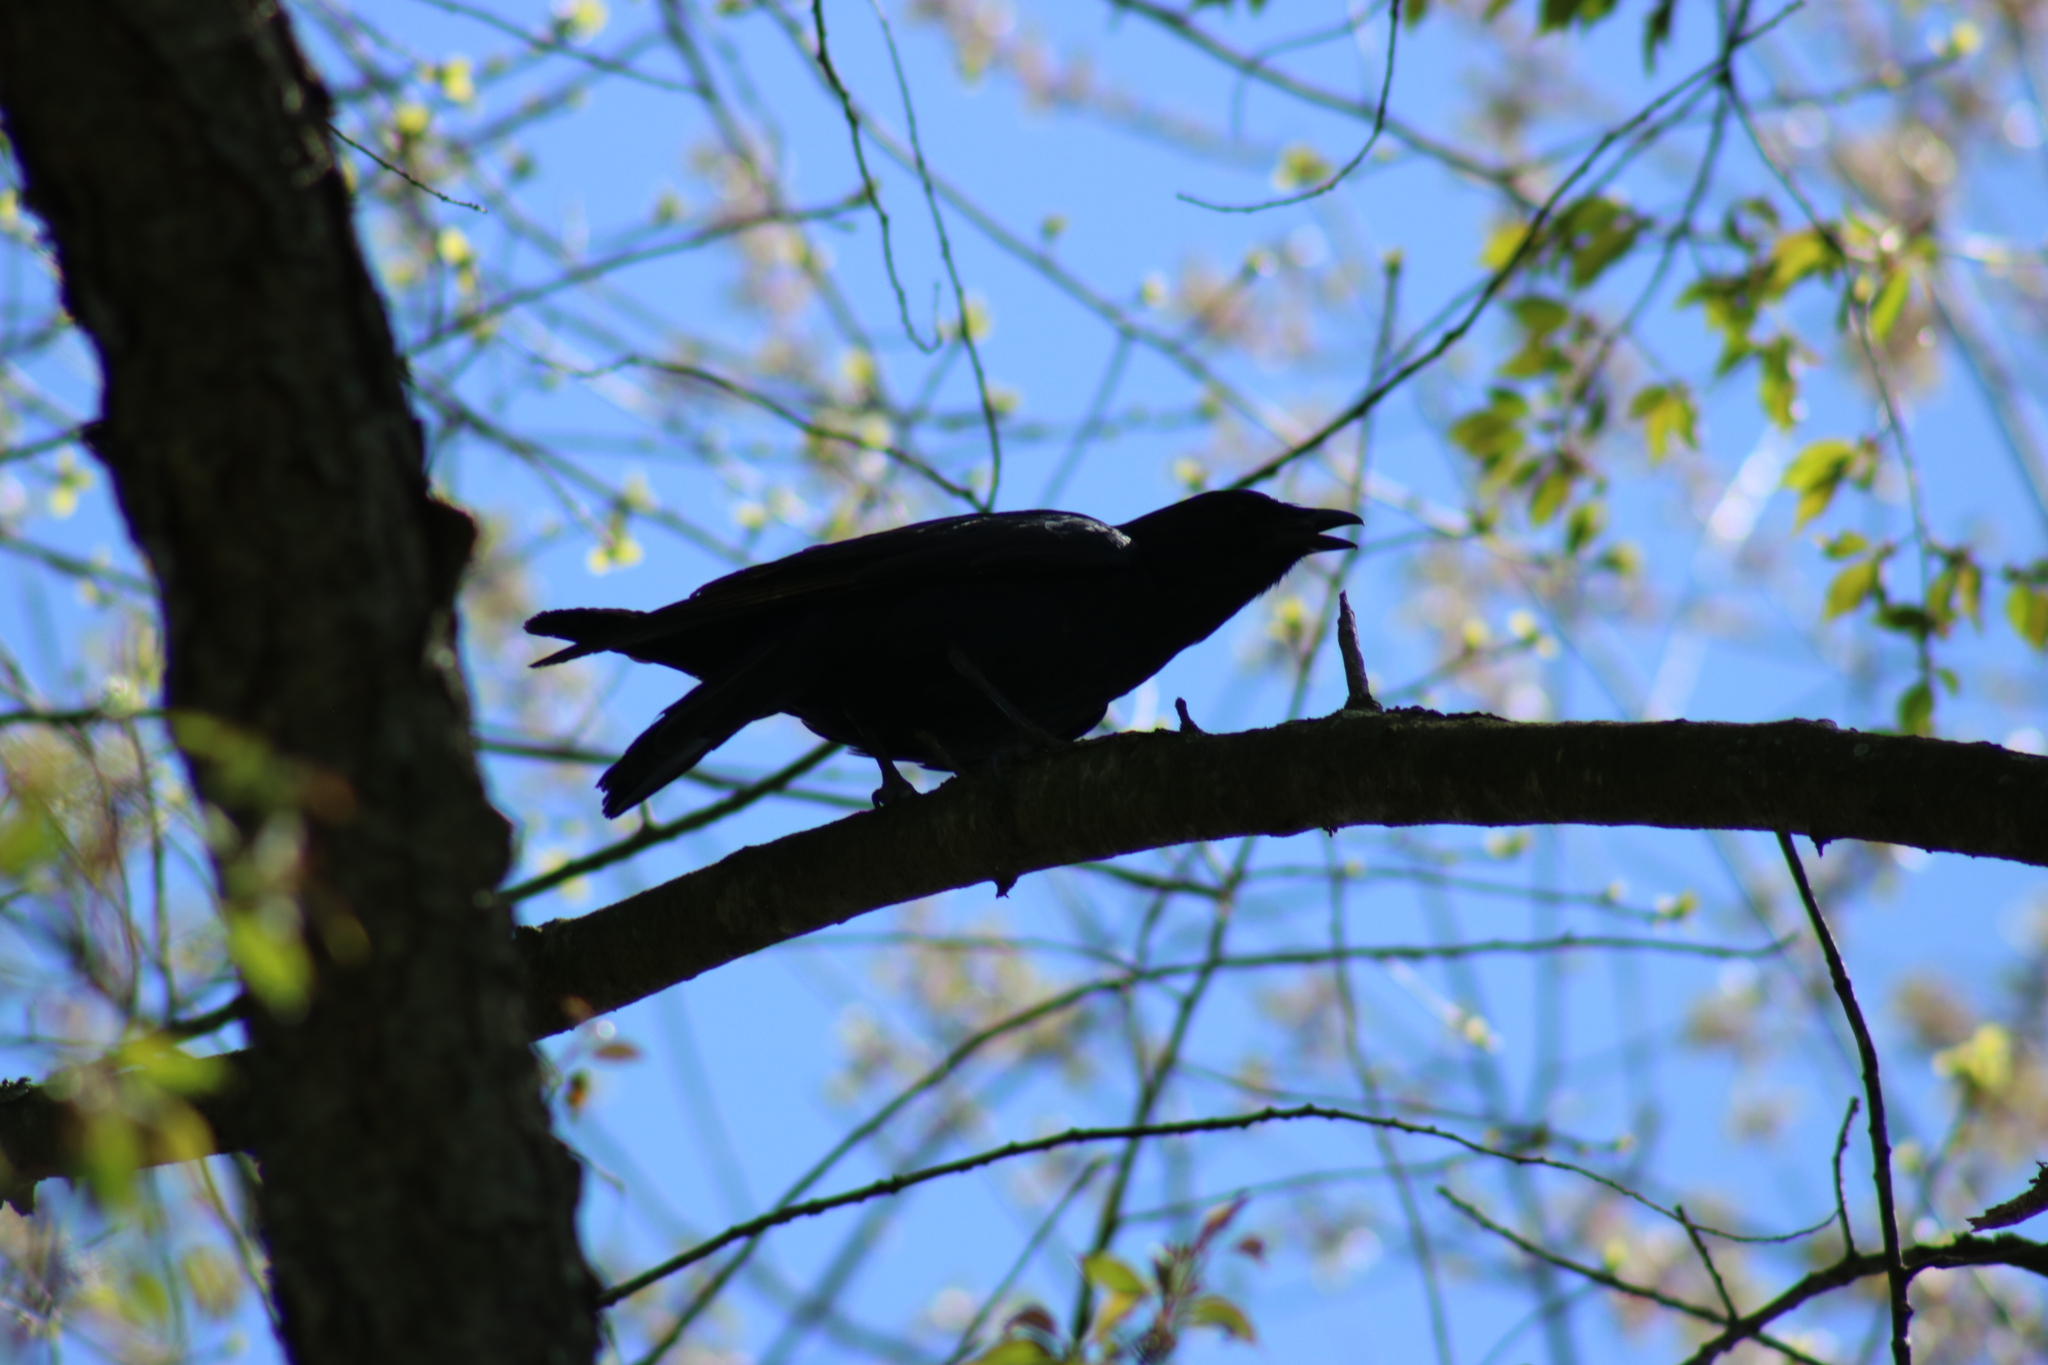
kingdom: Animalia
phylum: Chordata
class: Aves
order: Passeriformes
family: Corvidae
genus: Corvus
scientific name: Corvus brachyrhynchos
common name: American crow
